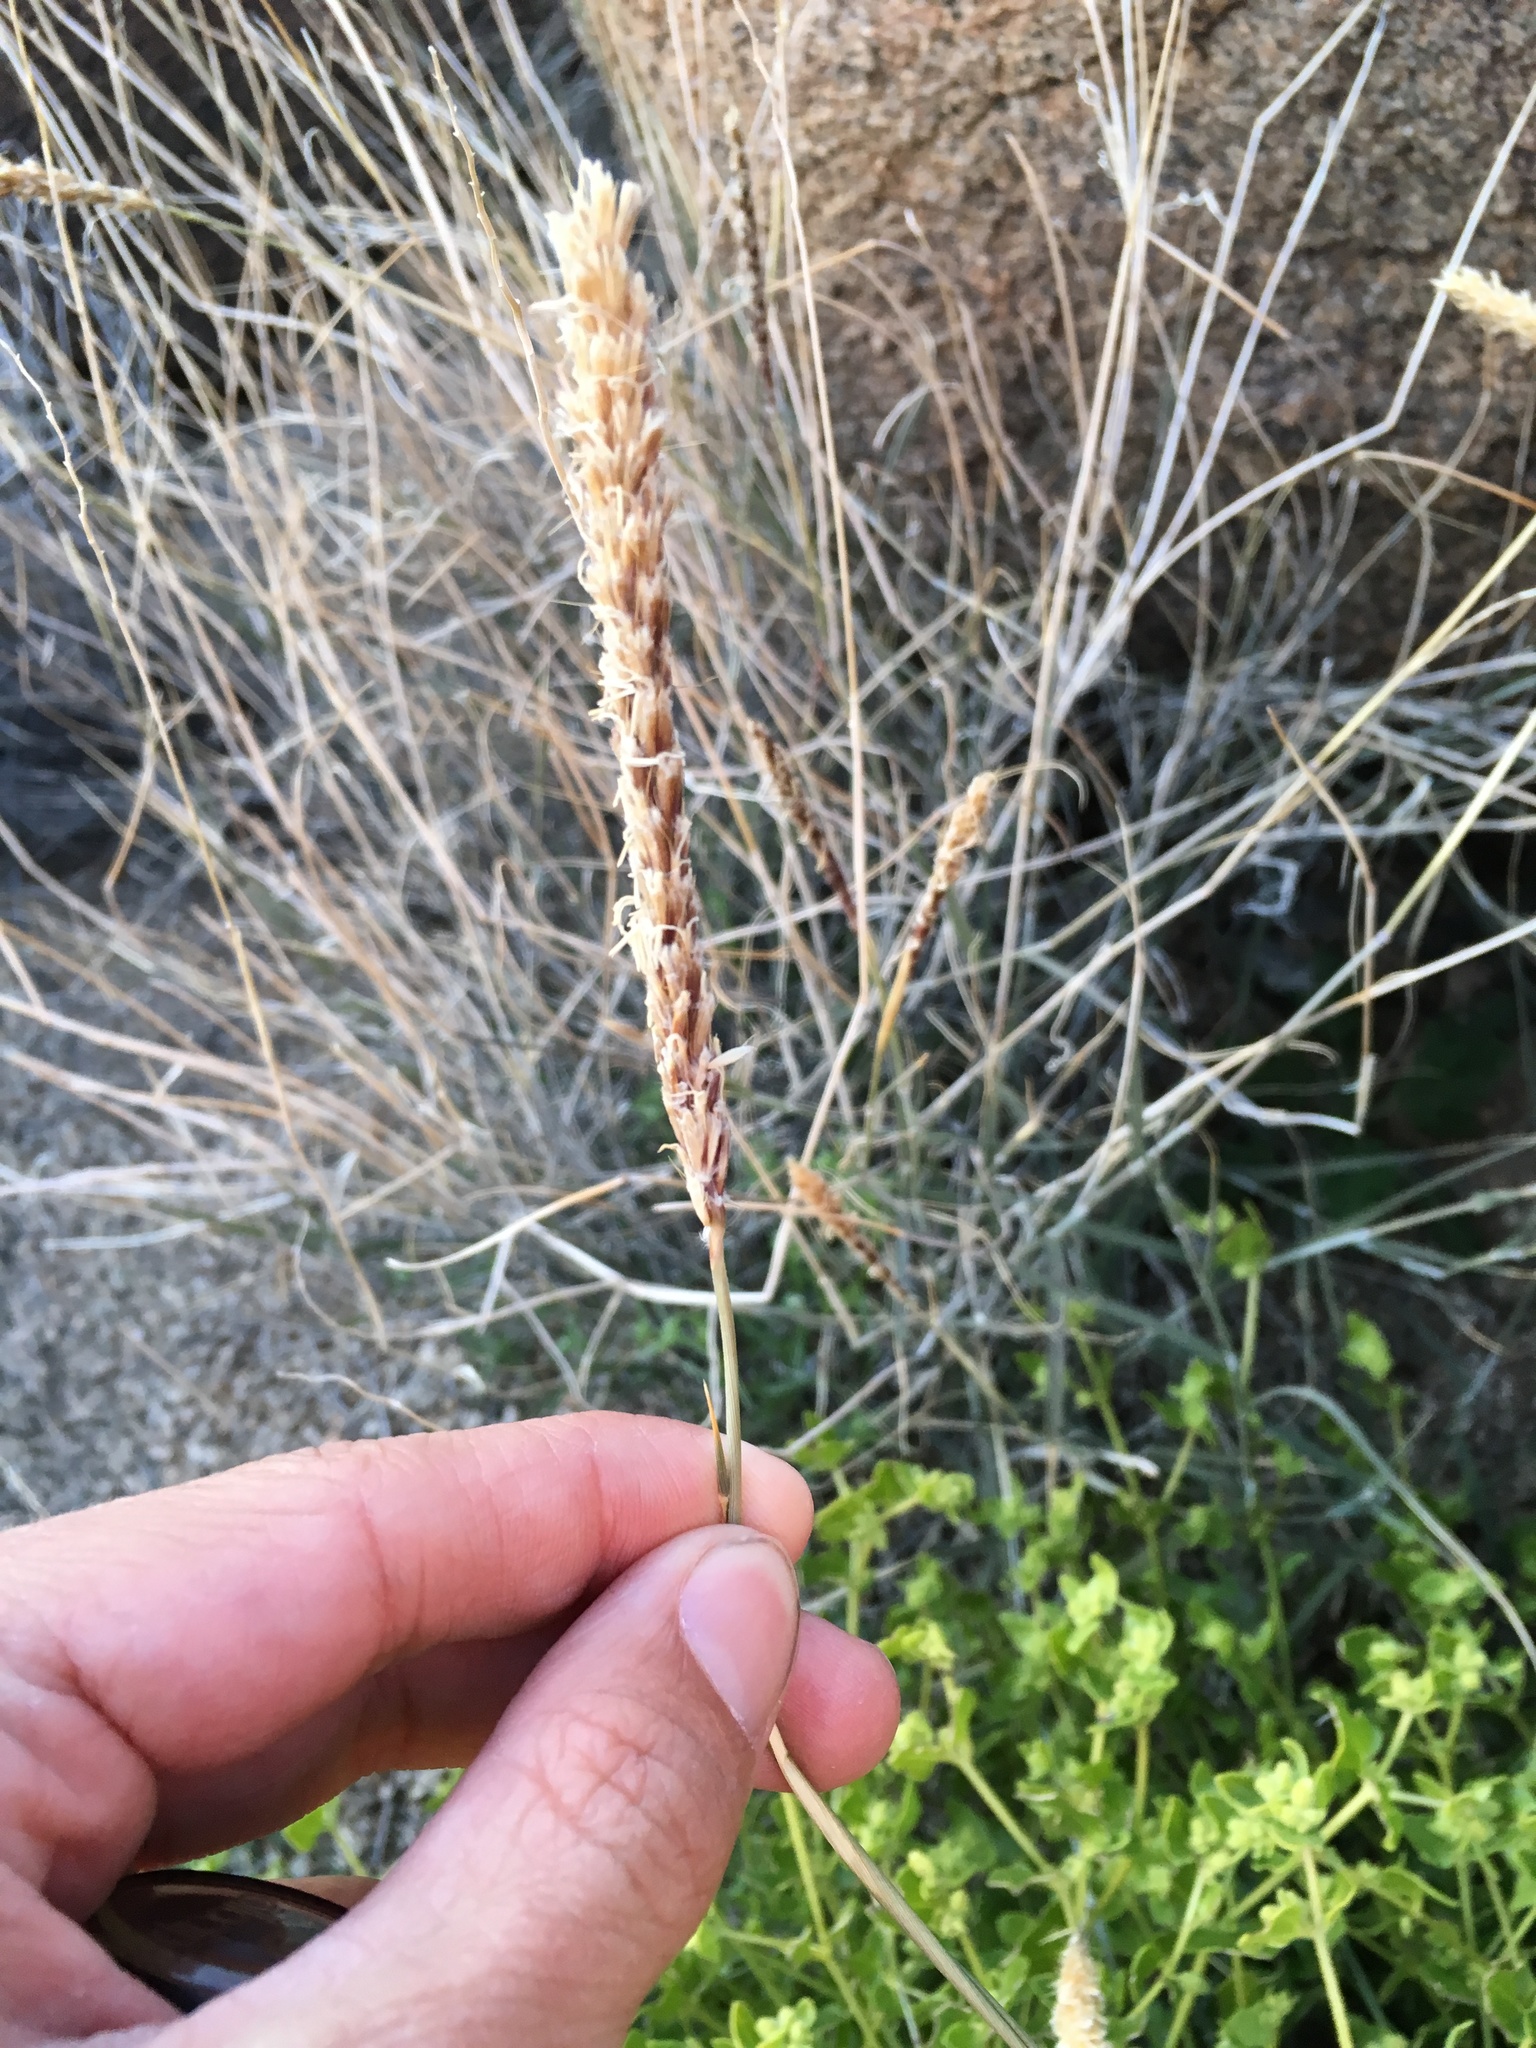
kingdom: Plantae
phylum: Tracheophyta
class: Liliopsida
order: Poales
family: Poaceae
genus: Hilaria
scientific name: Hilaria rigida
